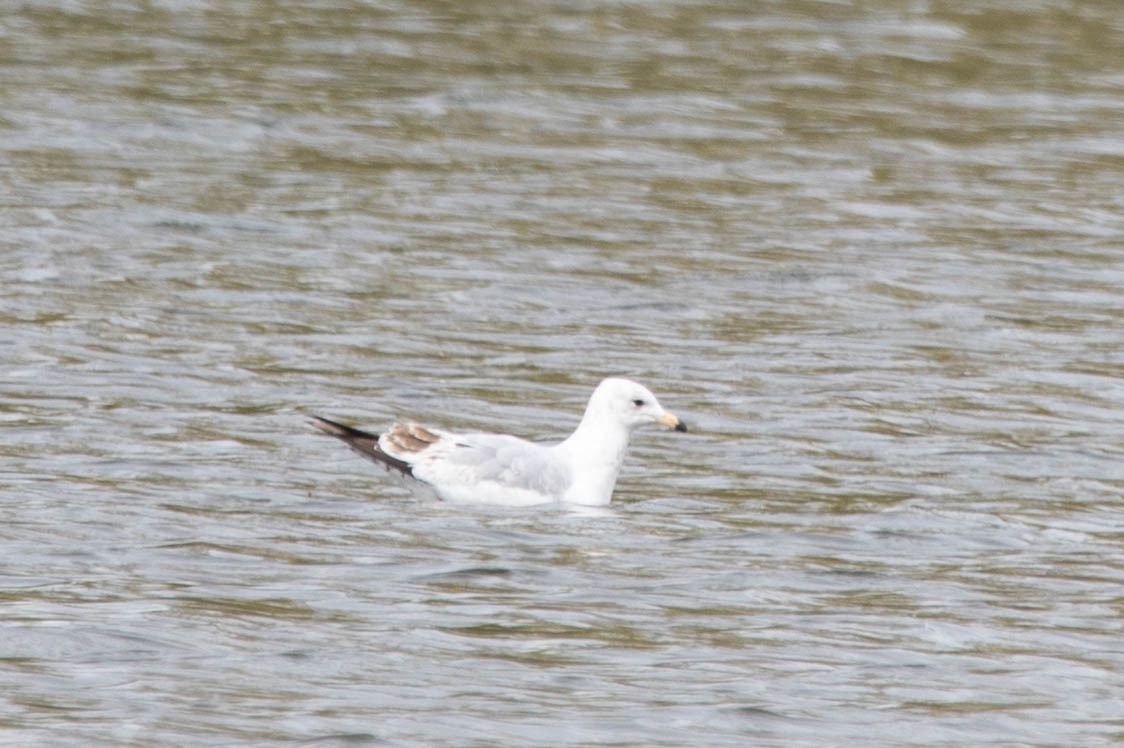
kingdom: Animalia
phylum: Chordata
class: Aves
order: Charadriiformes
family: Laridae
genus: Larus
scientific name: Larus delawarensis
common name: Ring-billed gull
